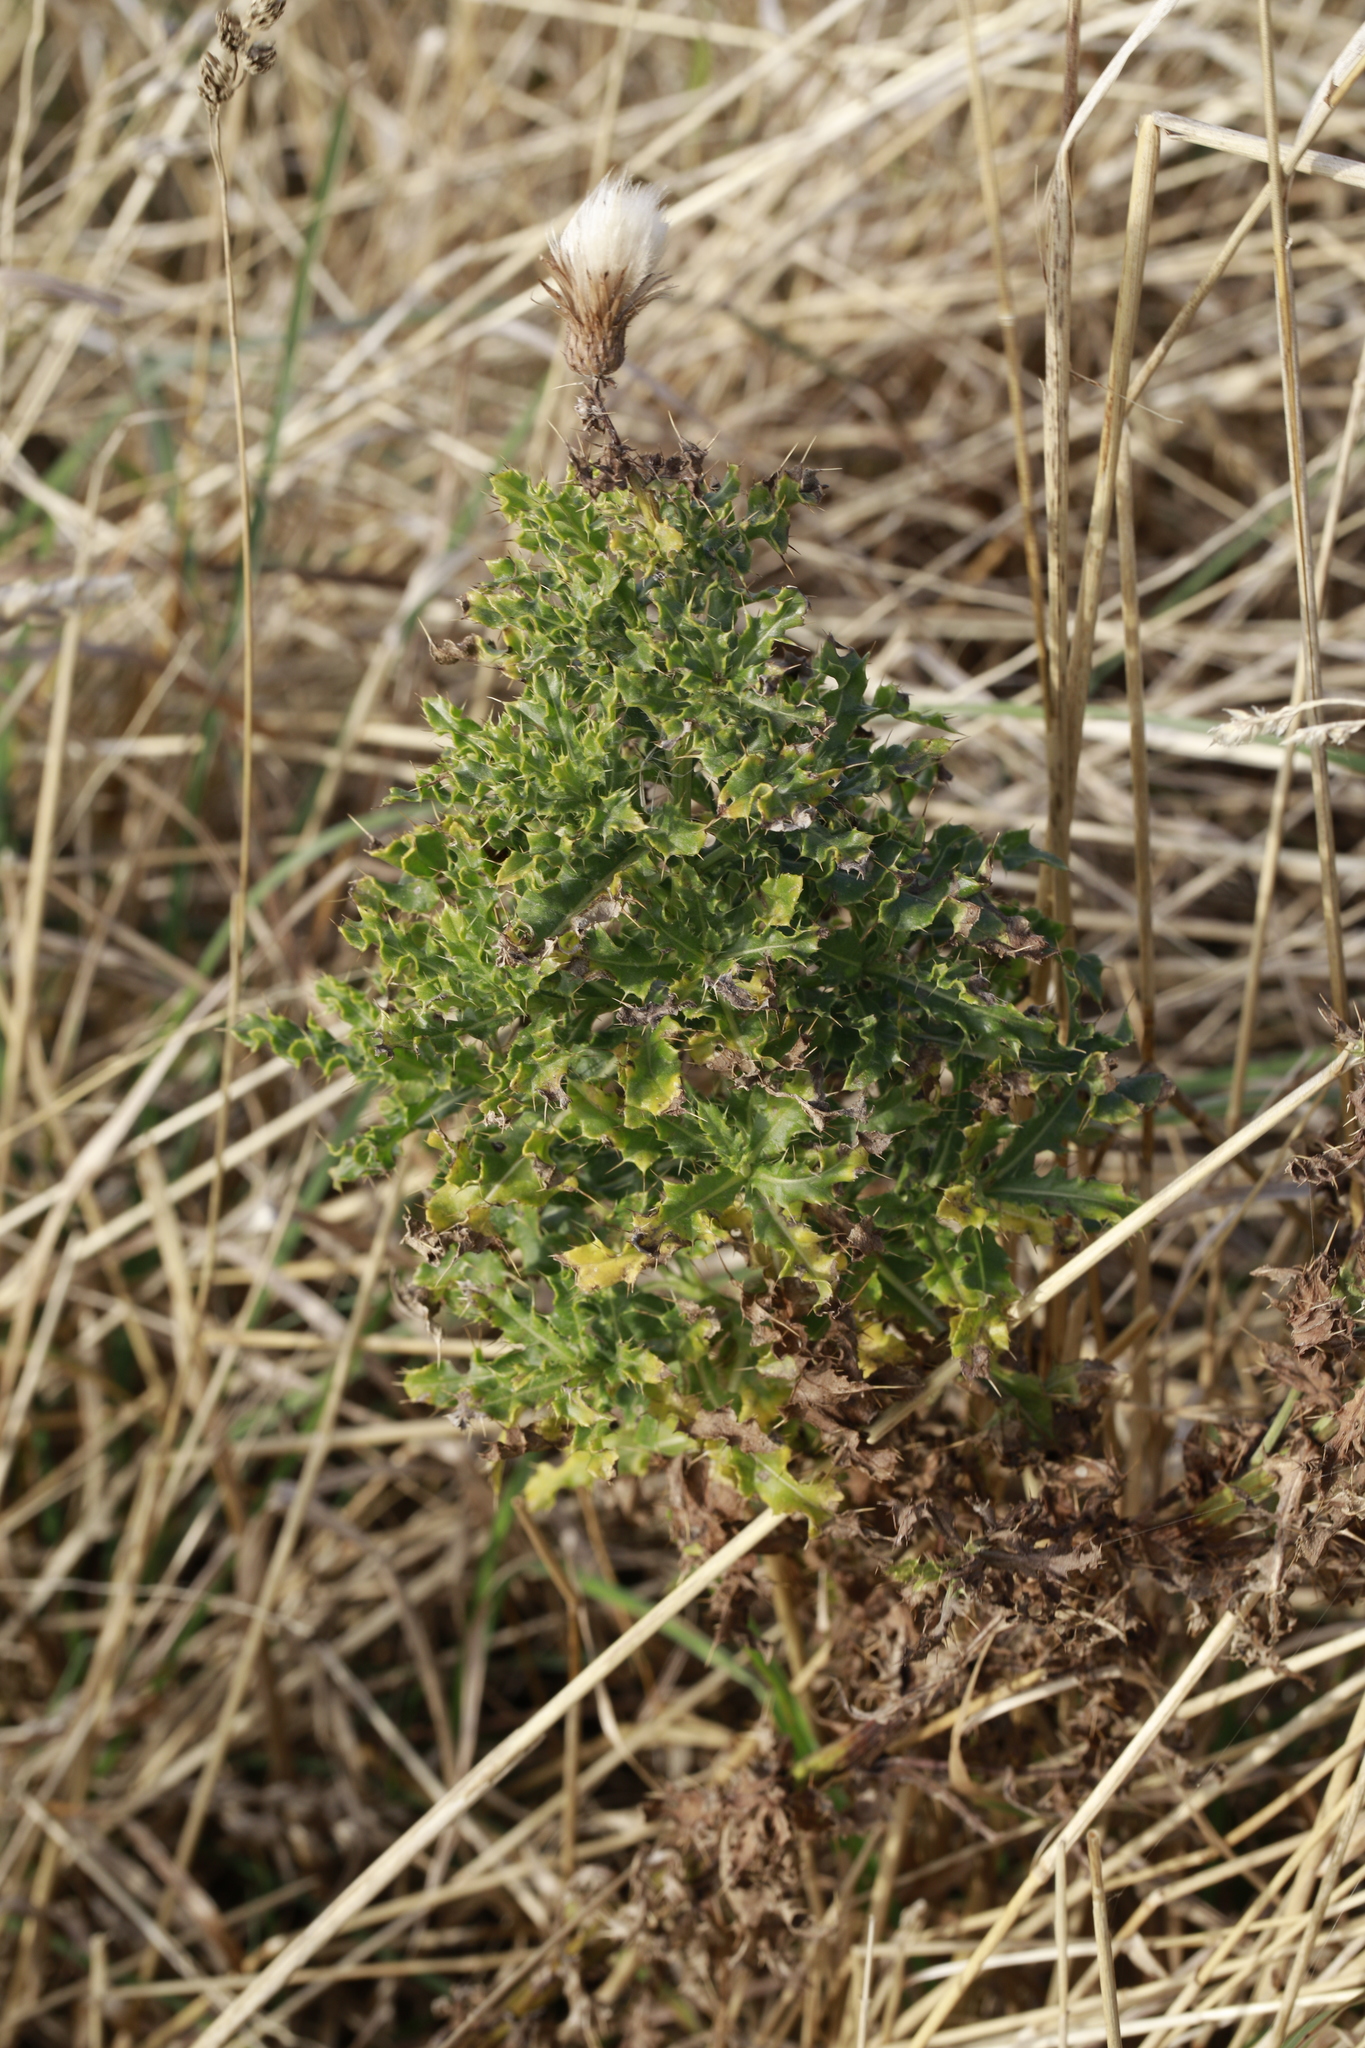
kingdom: Plantae
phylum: Tracheophyta
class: Magnoliopsida
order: Asterales
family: Asteraceae
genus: Cirsium
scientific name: Cirsium arvense
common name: Creeping thistle
